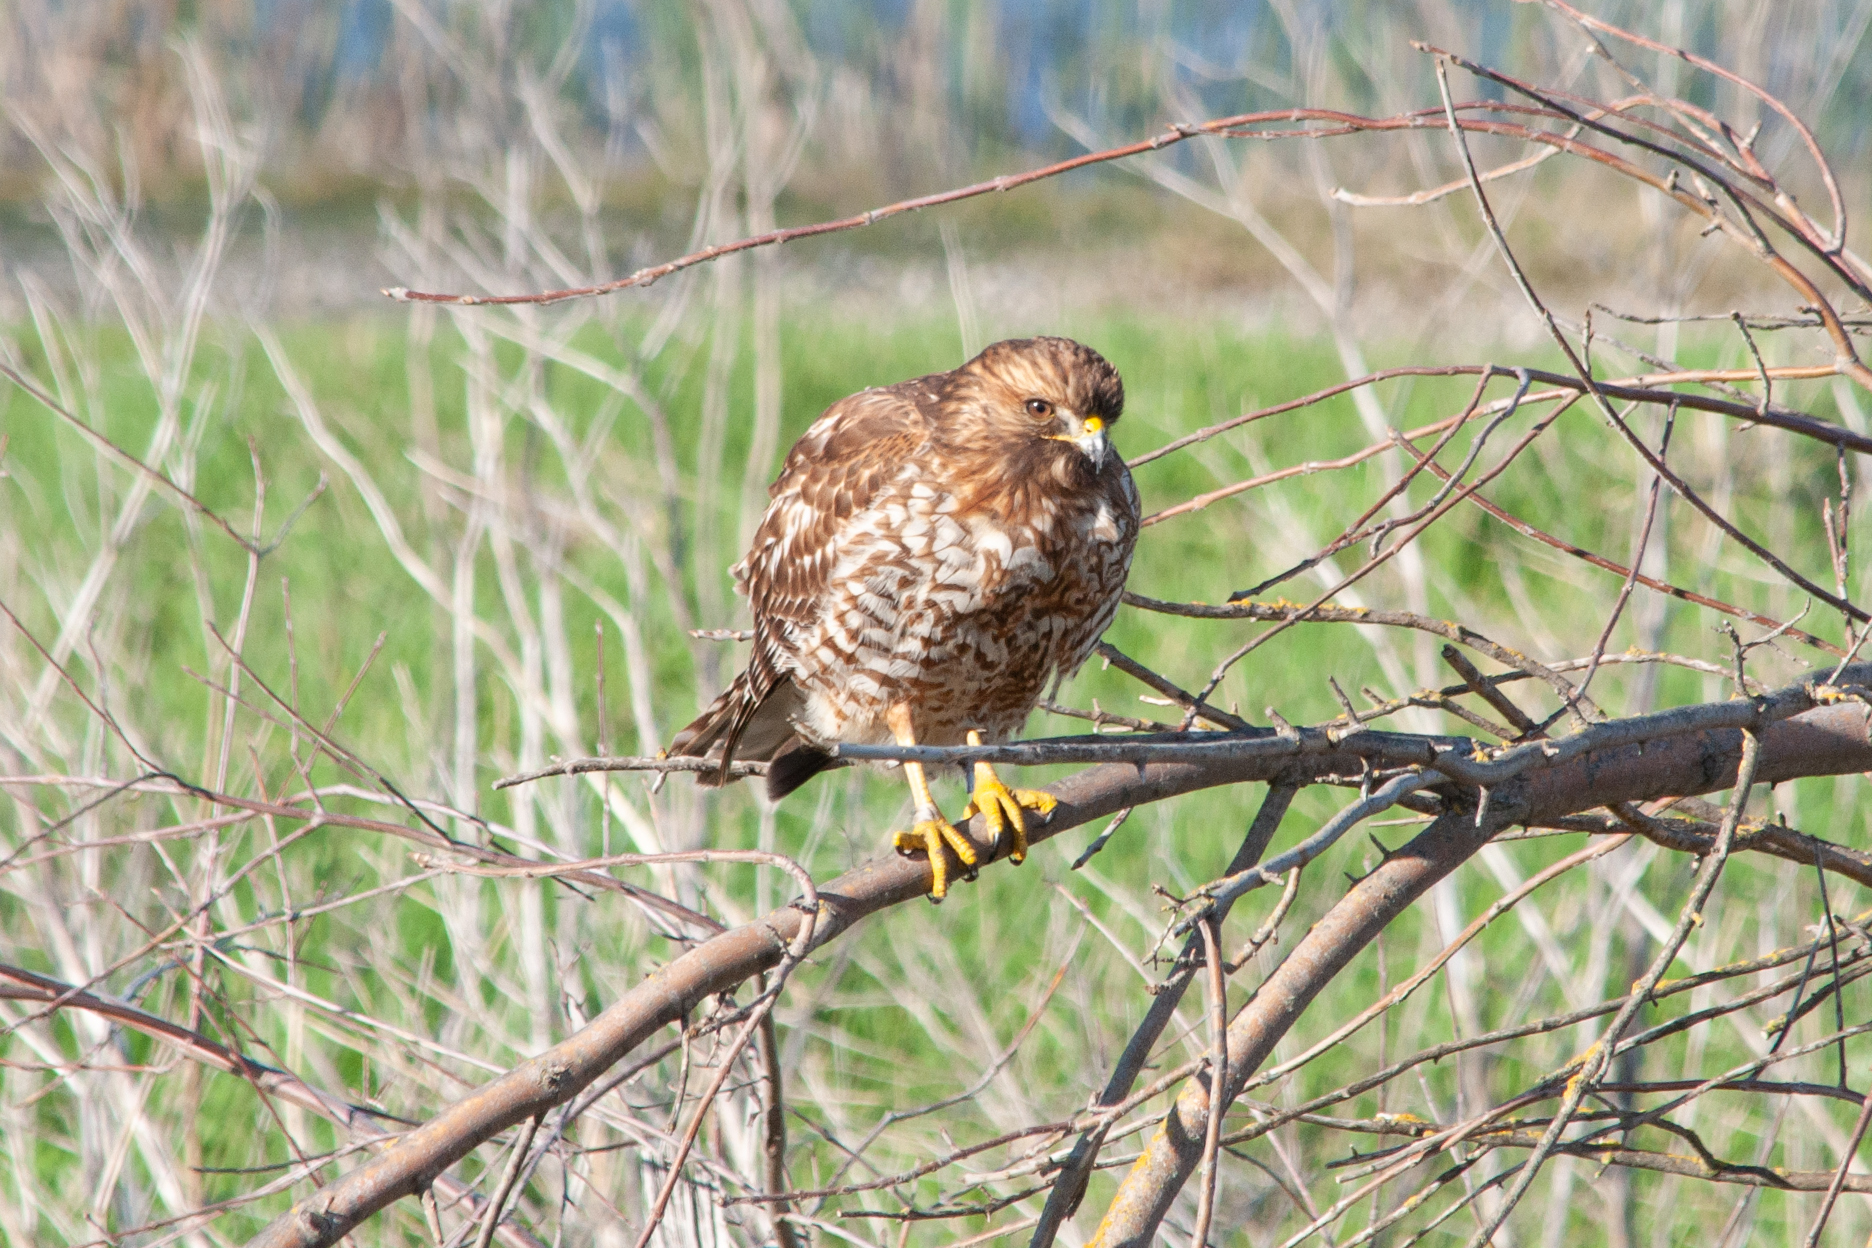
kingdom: Animalia
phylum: Chordata
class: Aves
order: Accipitriformes
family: Accipitridae
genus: Buteo
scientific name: Buteo lineatus
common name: Red-shouldered hawk
